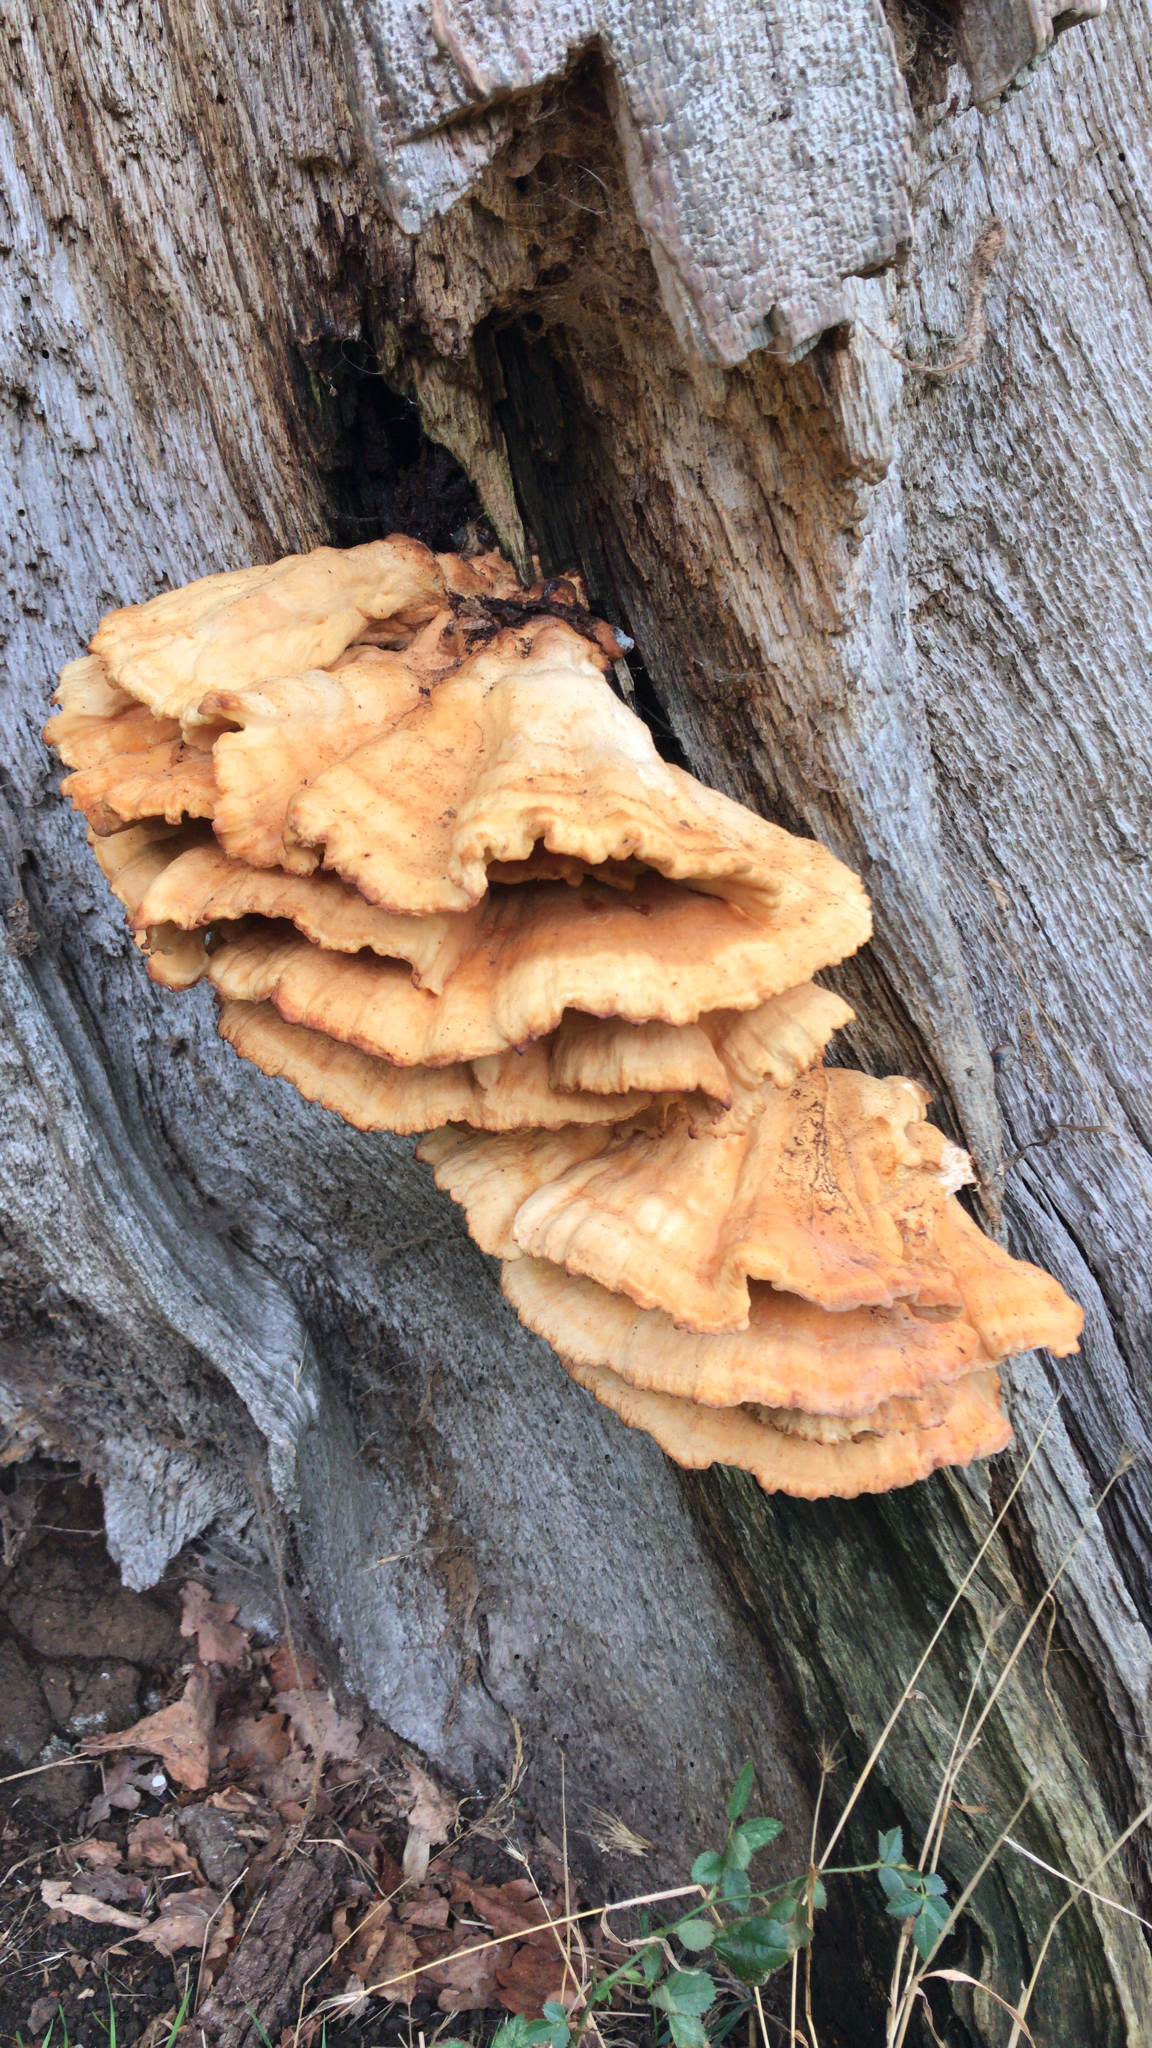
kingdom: Fungi
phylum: Basidiomycota
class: Agaricomycetes
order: Polyporales
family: Laetiporaceae
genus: Laetiporus
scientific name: Laetiporus sulphureus
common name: Chicken of the woods
